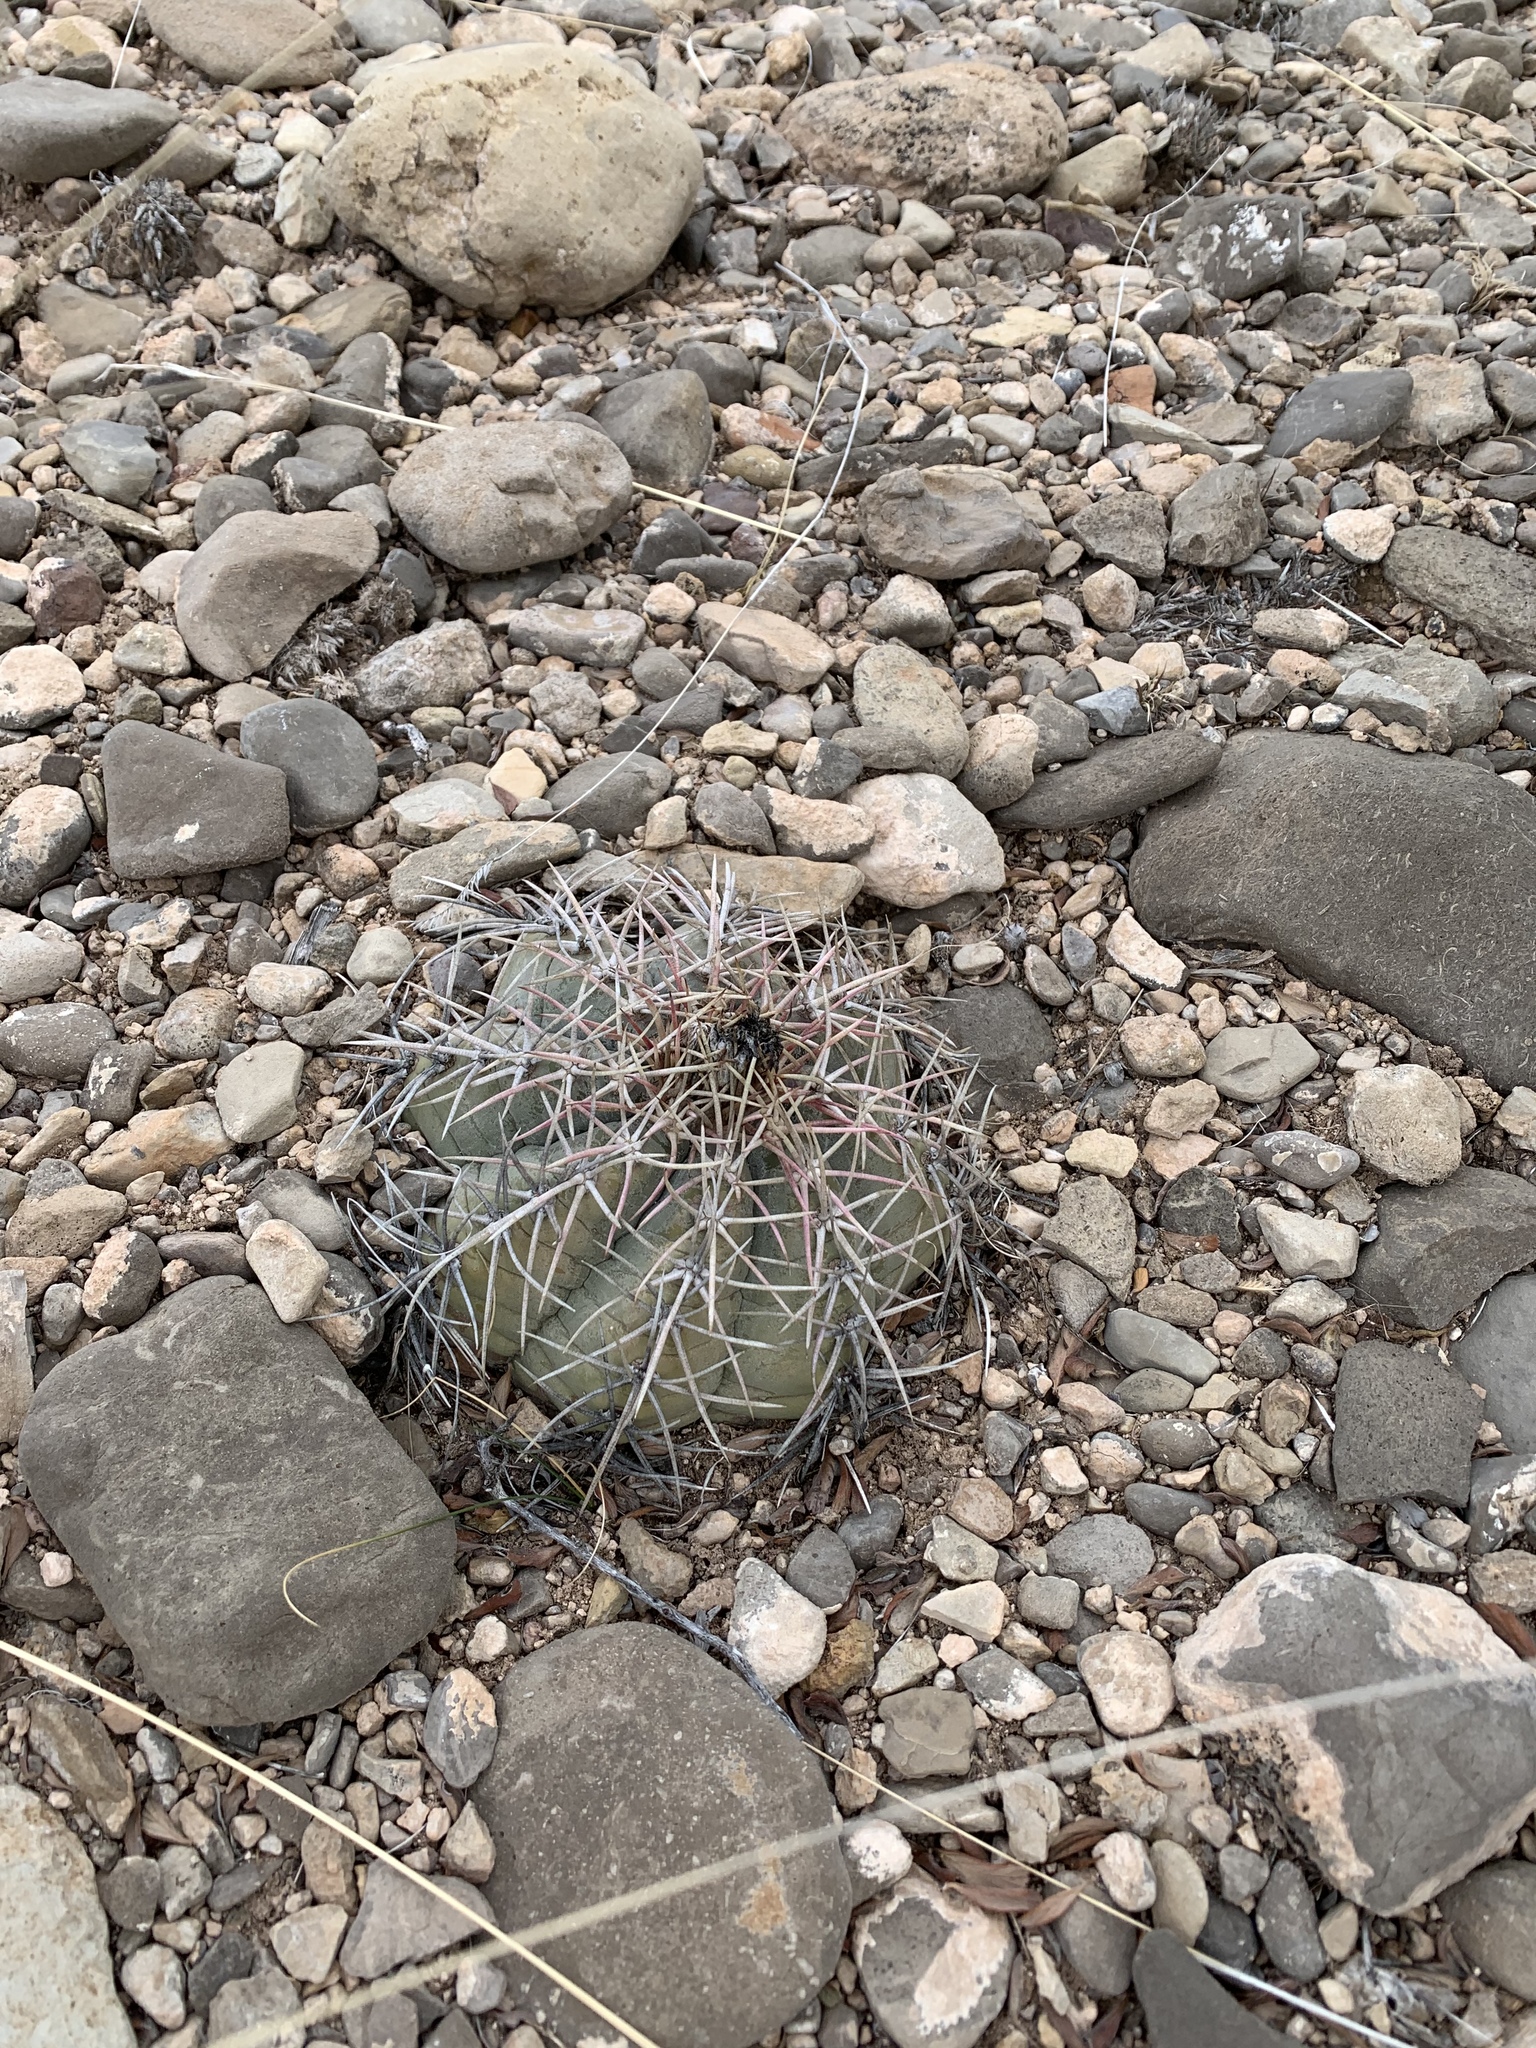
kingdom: Plantae
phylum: Tracheophyta
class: Magnoliopsida
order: Caryophyllales
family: Cactaceae
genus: Echinocactus
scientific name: Echinocactus horizonthalonius
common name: Devilshead
